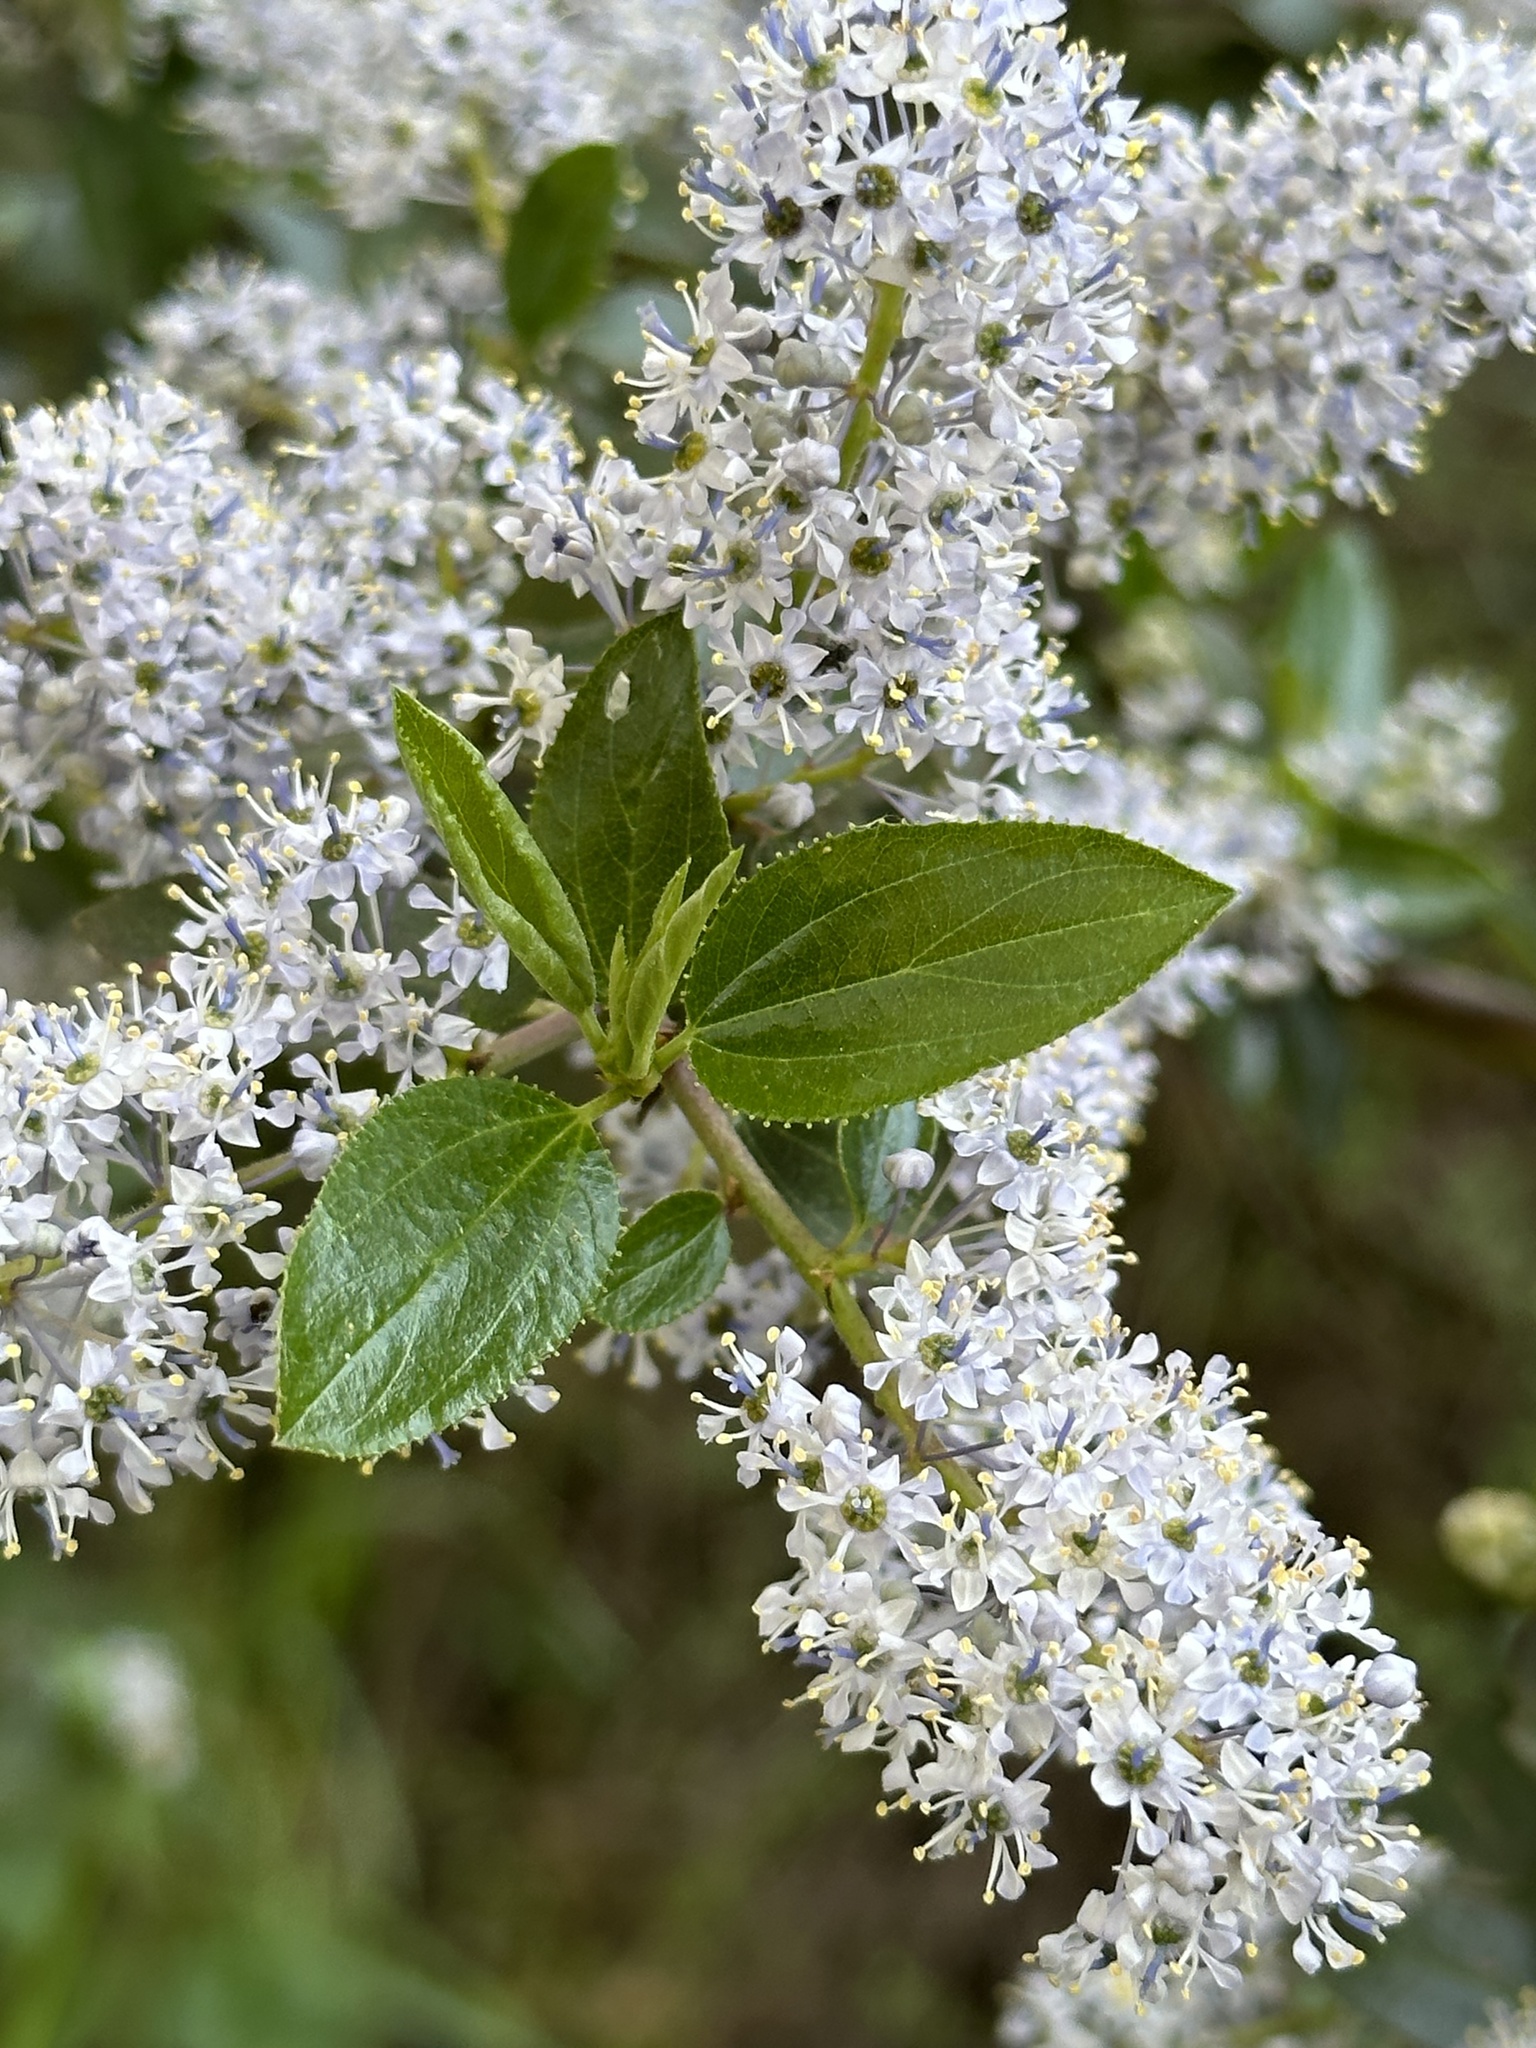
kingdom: Plantae
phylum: Tracheophyta
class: Magnoliopsida
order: Rosales
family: Rhamnaceae
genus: Ceanothus
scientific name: Ceanothus oliganthus
